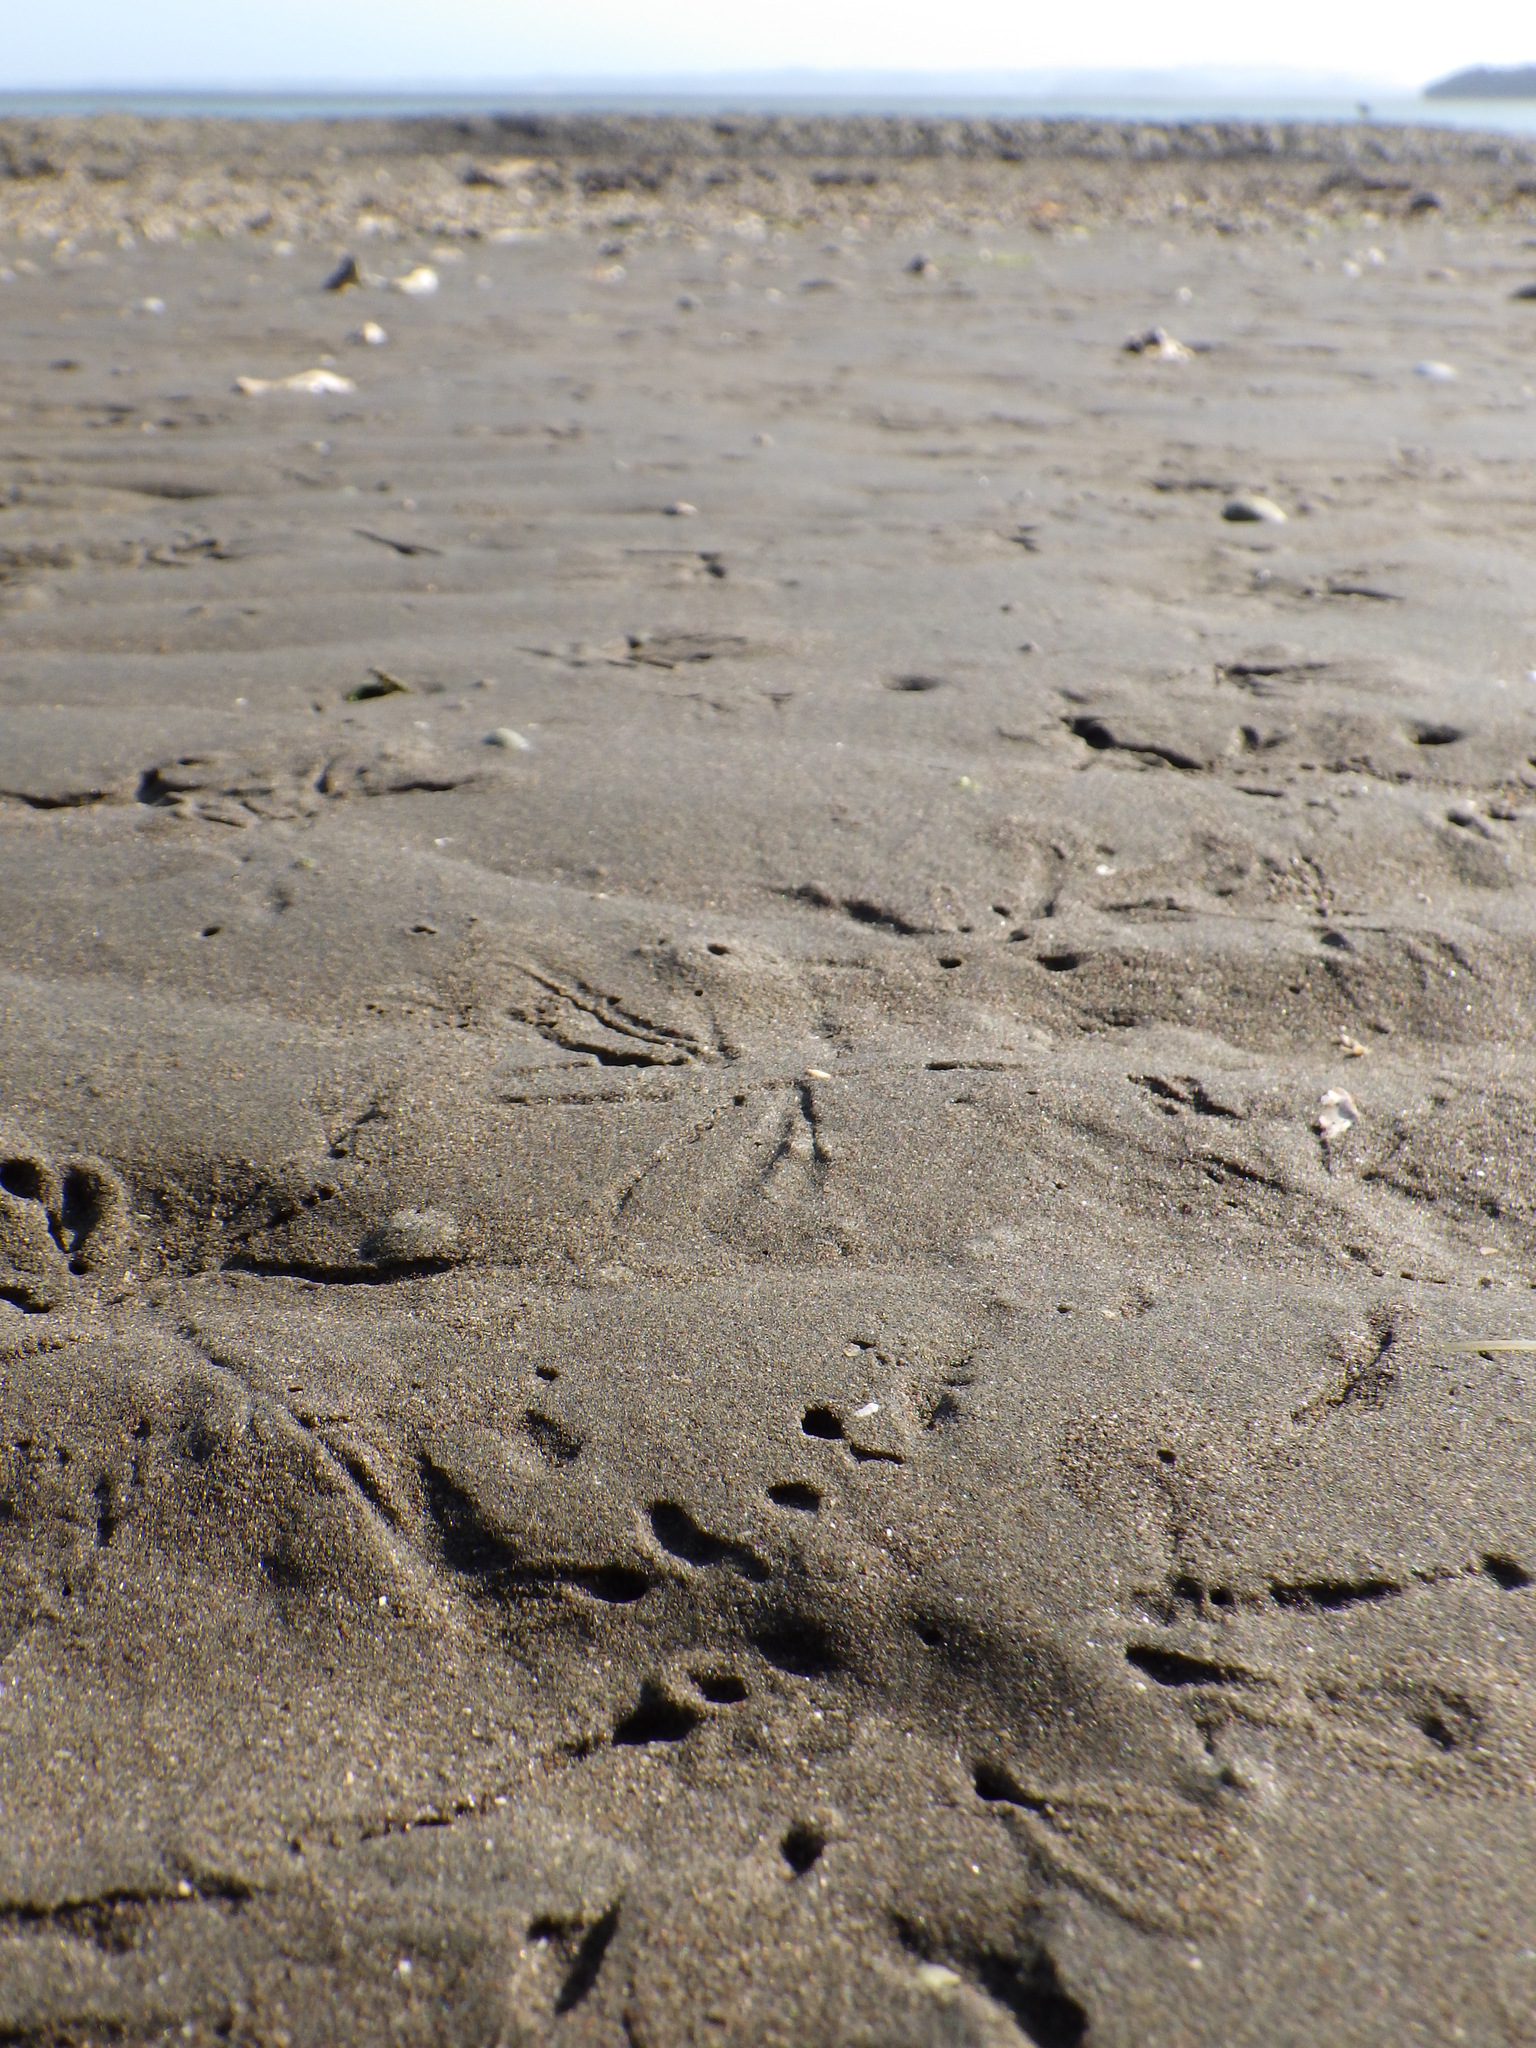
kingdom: Animalia
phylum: Mollusca
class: Bivalvia
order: Cardiida
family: Tellinidae
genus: Macomona
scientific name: Macomona liliana
